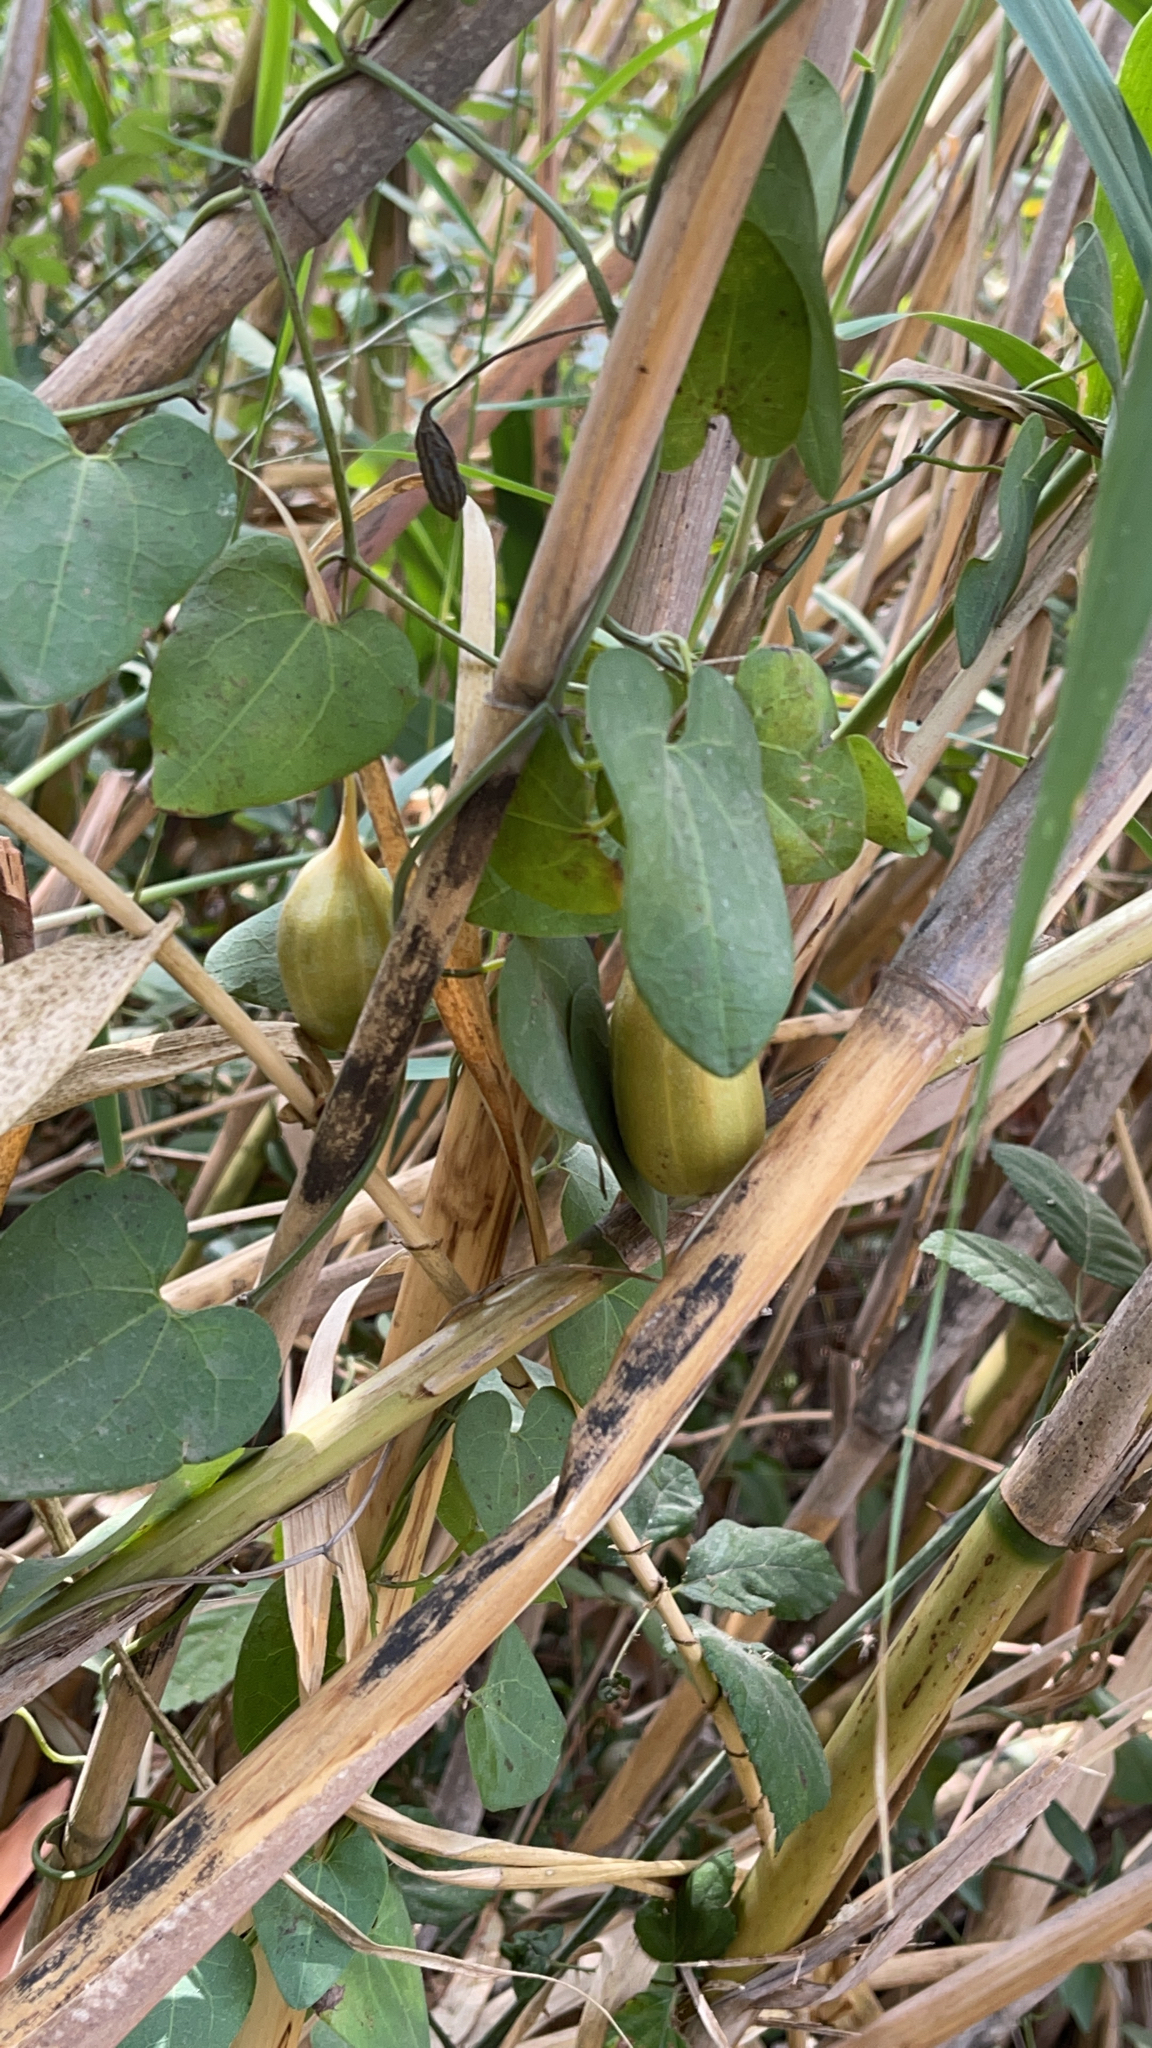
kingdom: Plantae
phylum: Tracheophyta
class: Magnoliopsida
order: Piperales
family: Aristolochiaceae
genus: Aristolochia
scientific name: Aristolochia baetica
